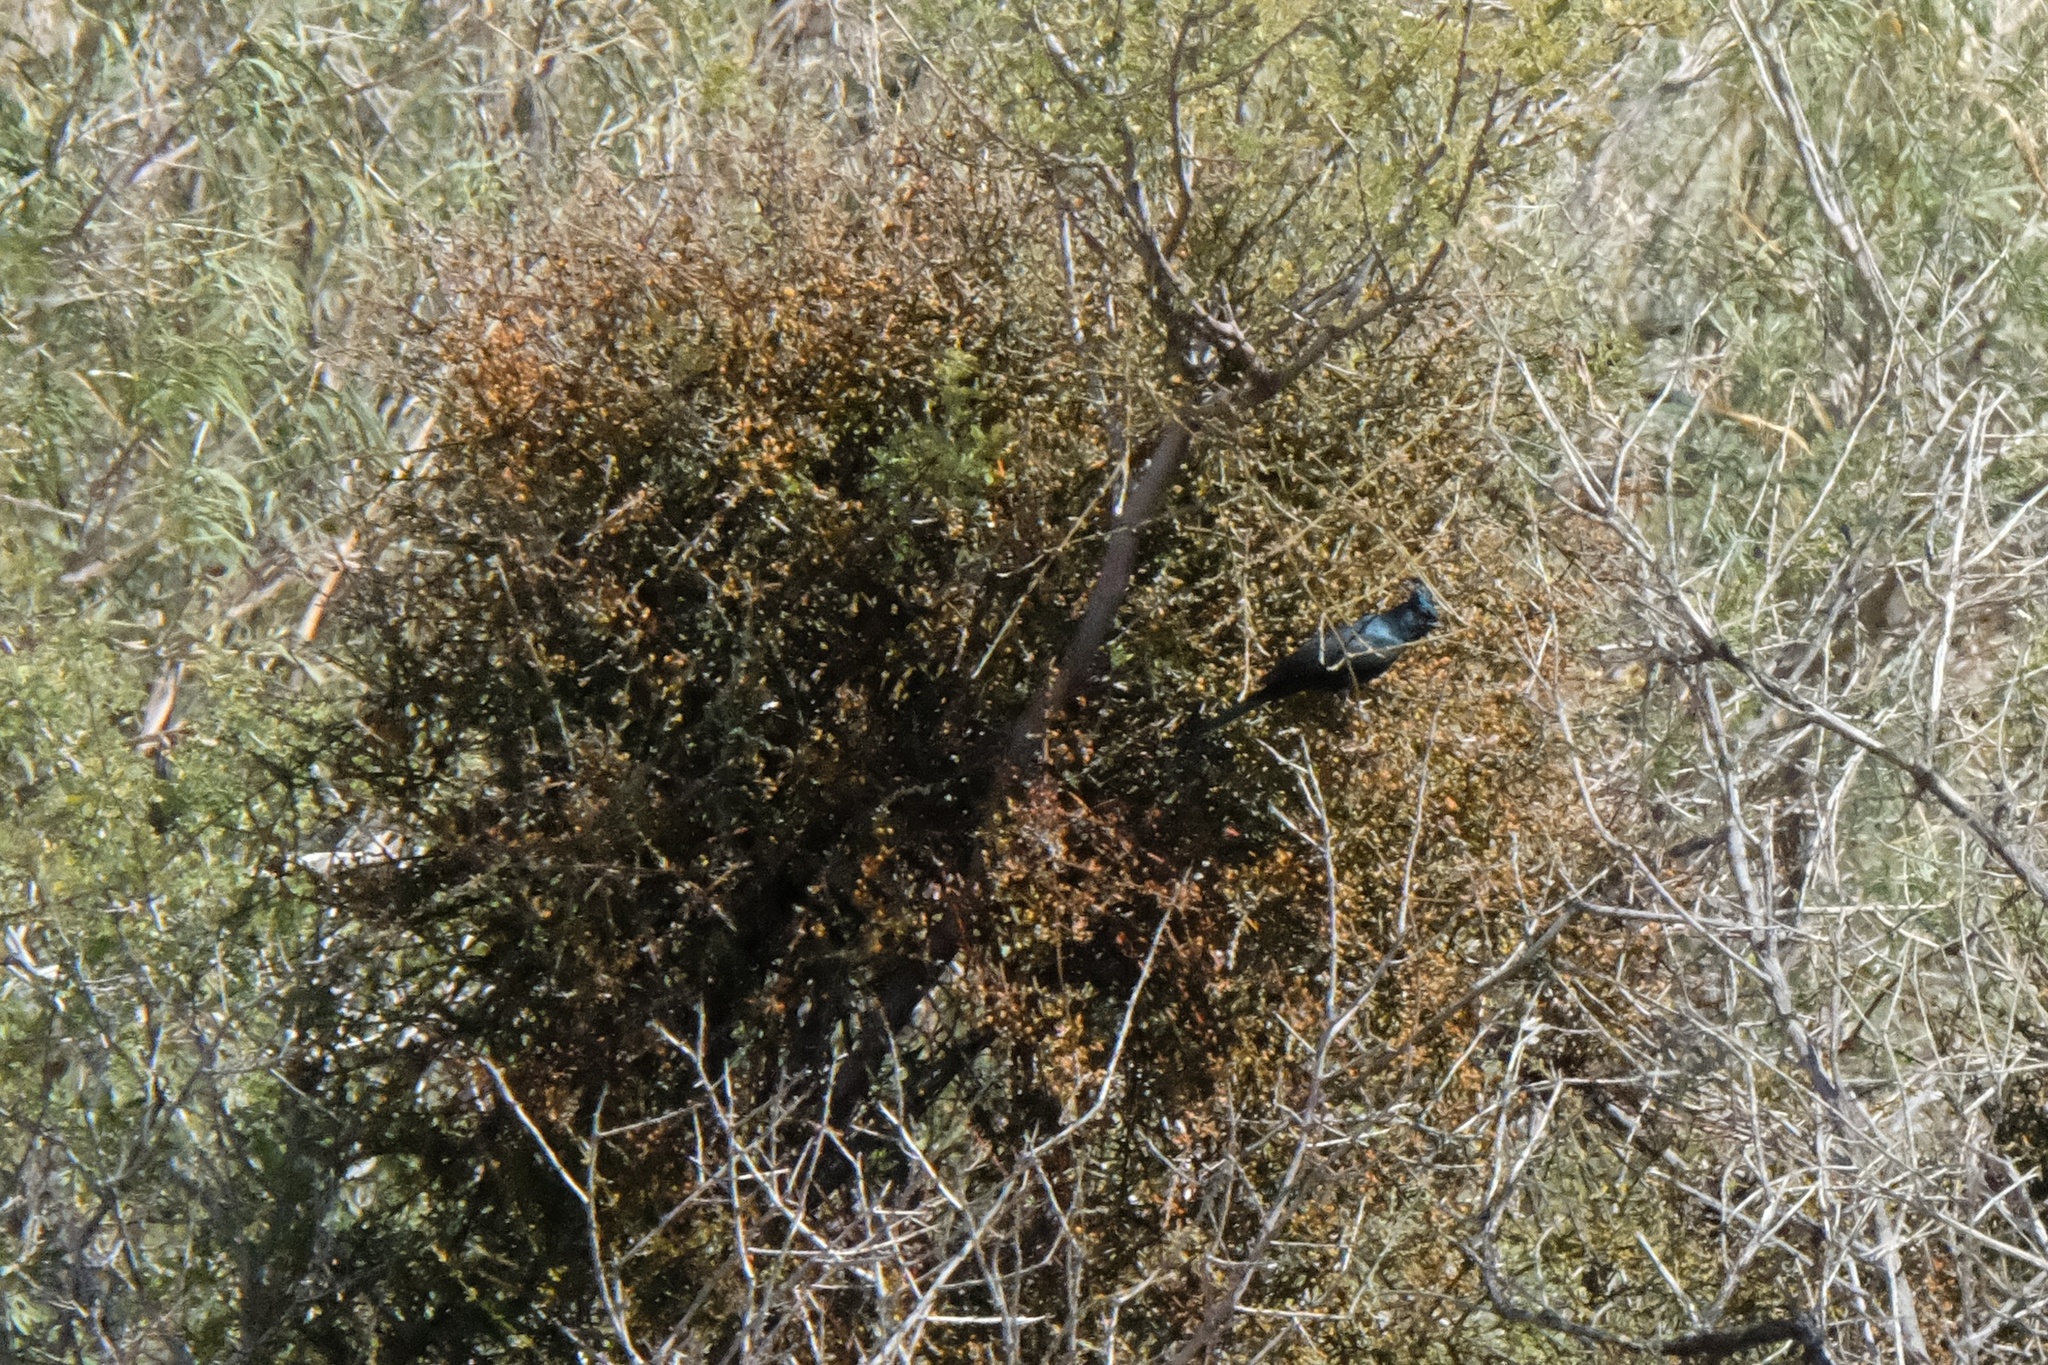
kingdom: Animalia
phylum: Chordata
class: Aves
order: Passeriformes
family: Ptilogonatidae
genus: Phainopepla
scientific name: Phainopepla nitens
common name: Phainopepla
